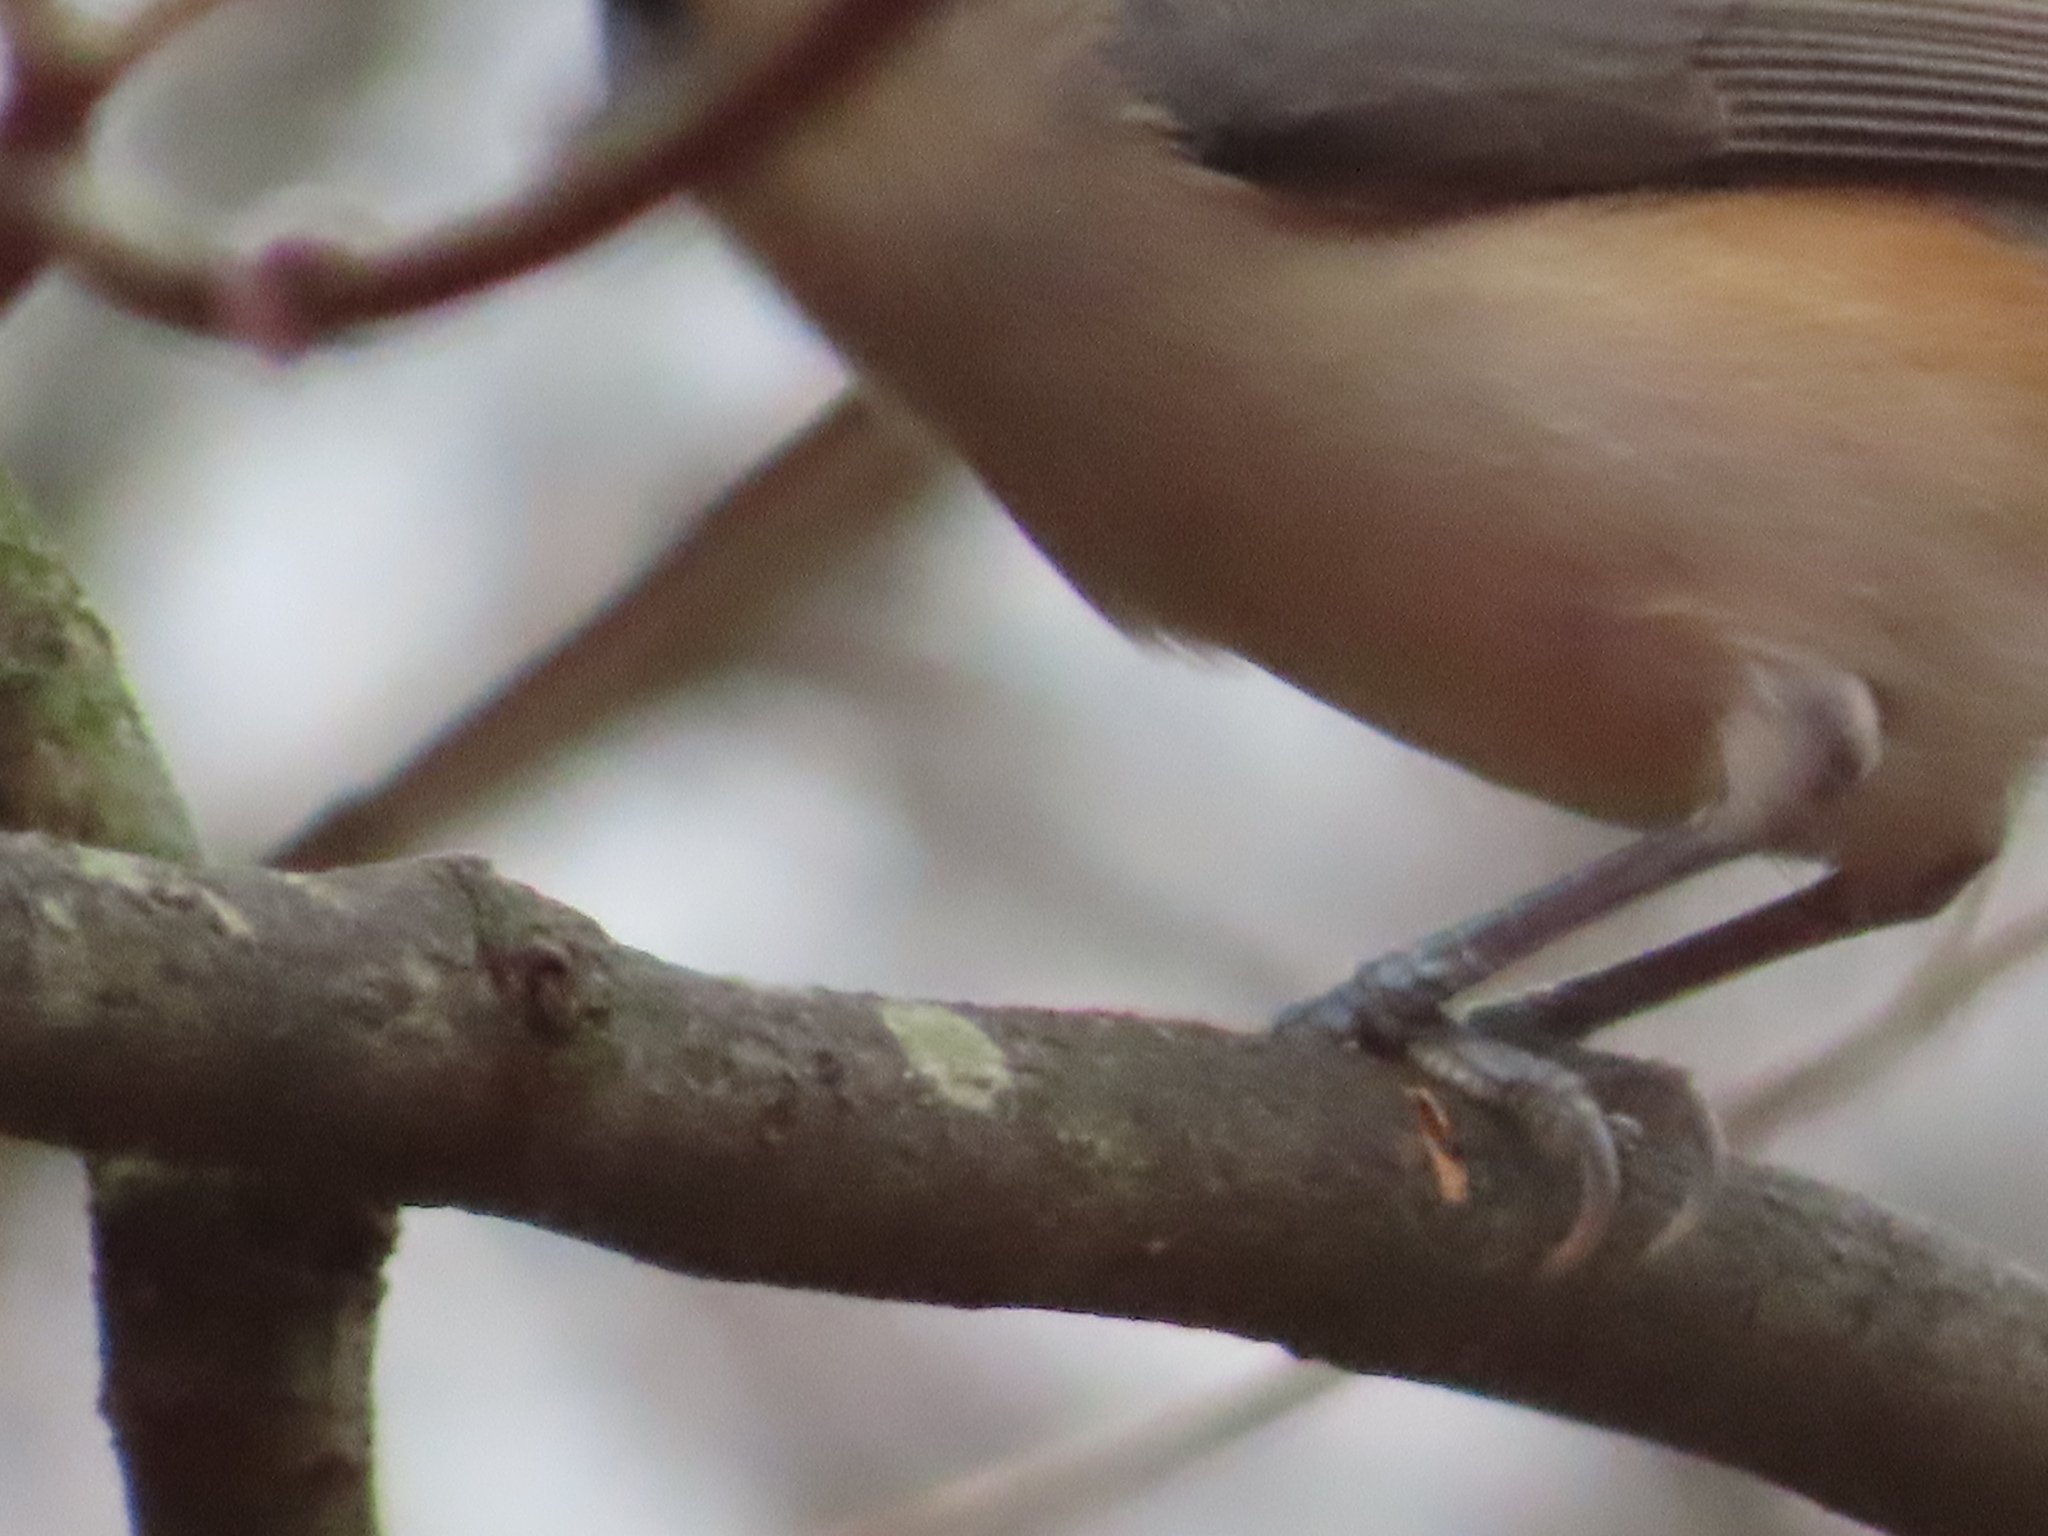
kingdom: Animalia
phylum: Chordata
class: Aves
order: Passeriformes
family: Paridae
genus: Baeolophus
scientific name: Baeolophus bicolor
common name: Tufted titmouse
